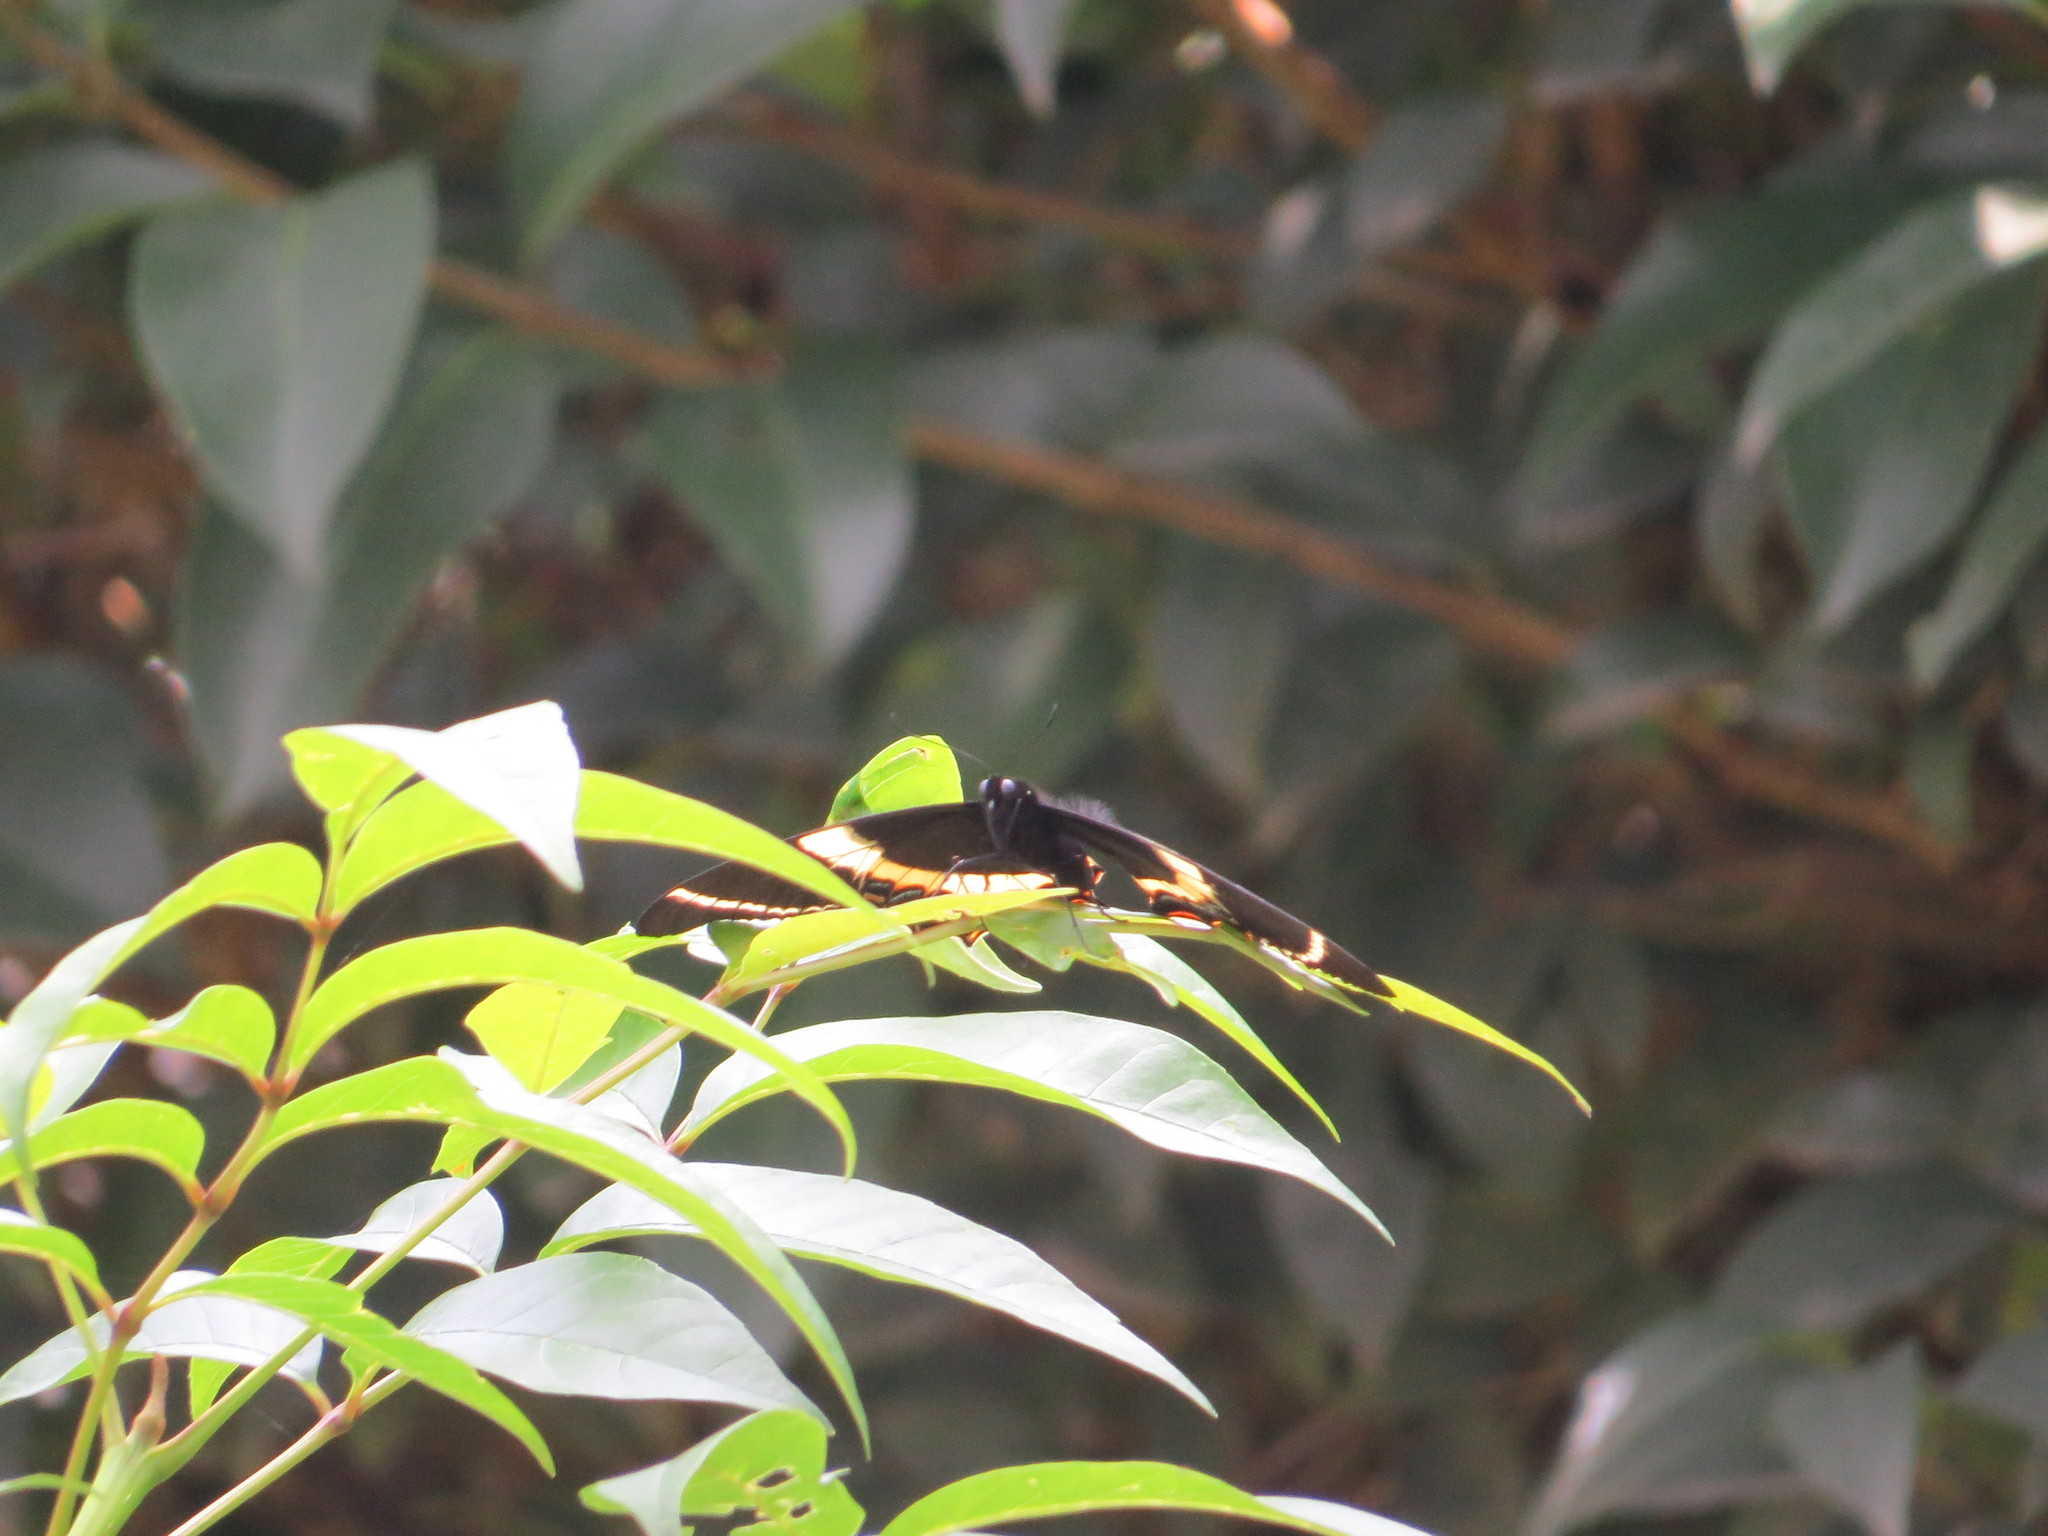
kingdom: Animalia
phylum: Arthropoda
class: Insecta
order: Lepidoptera
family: Papilionidae
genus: Papilio
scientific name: Papilio garamas
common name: Magnificent swallowtail
